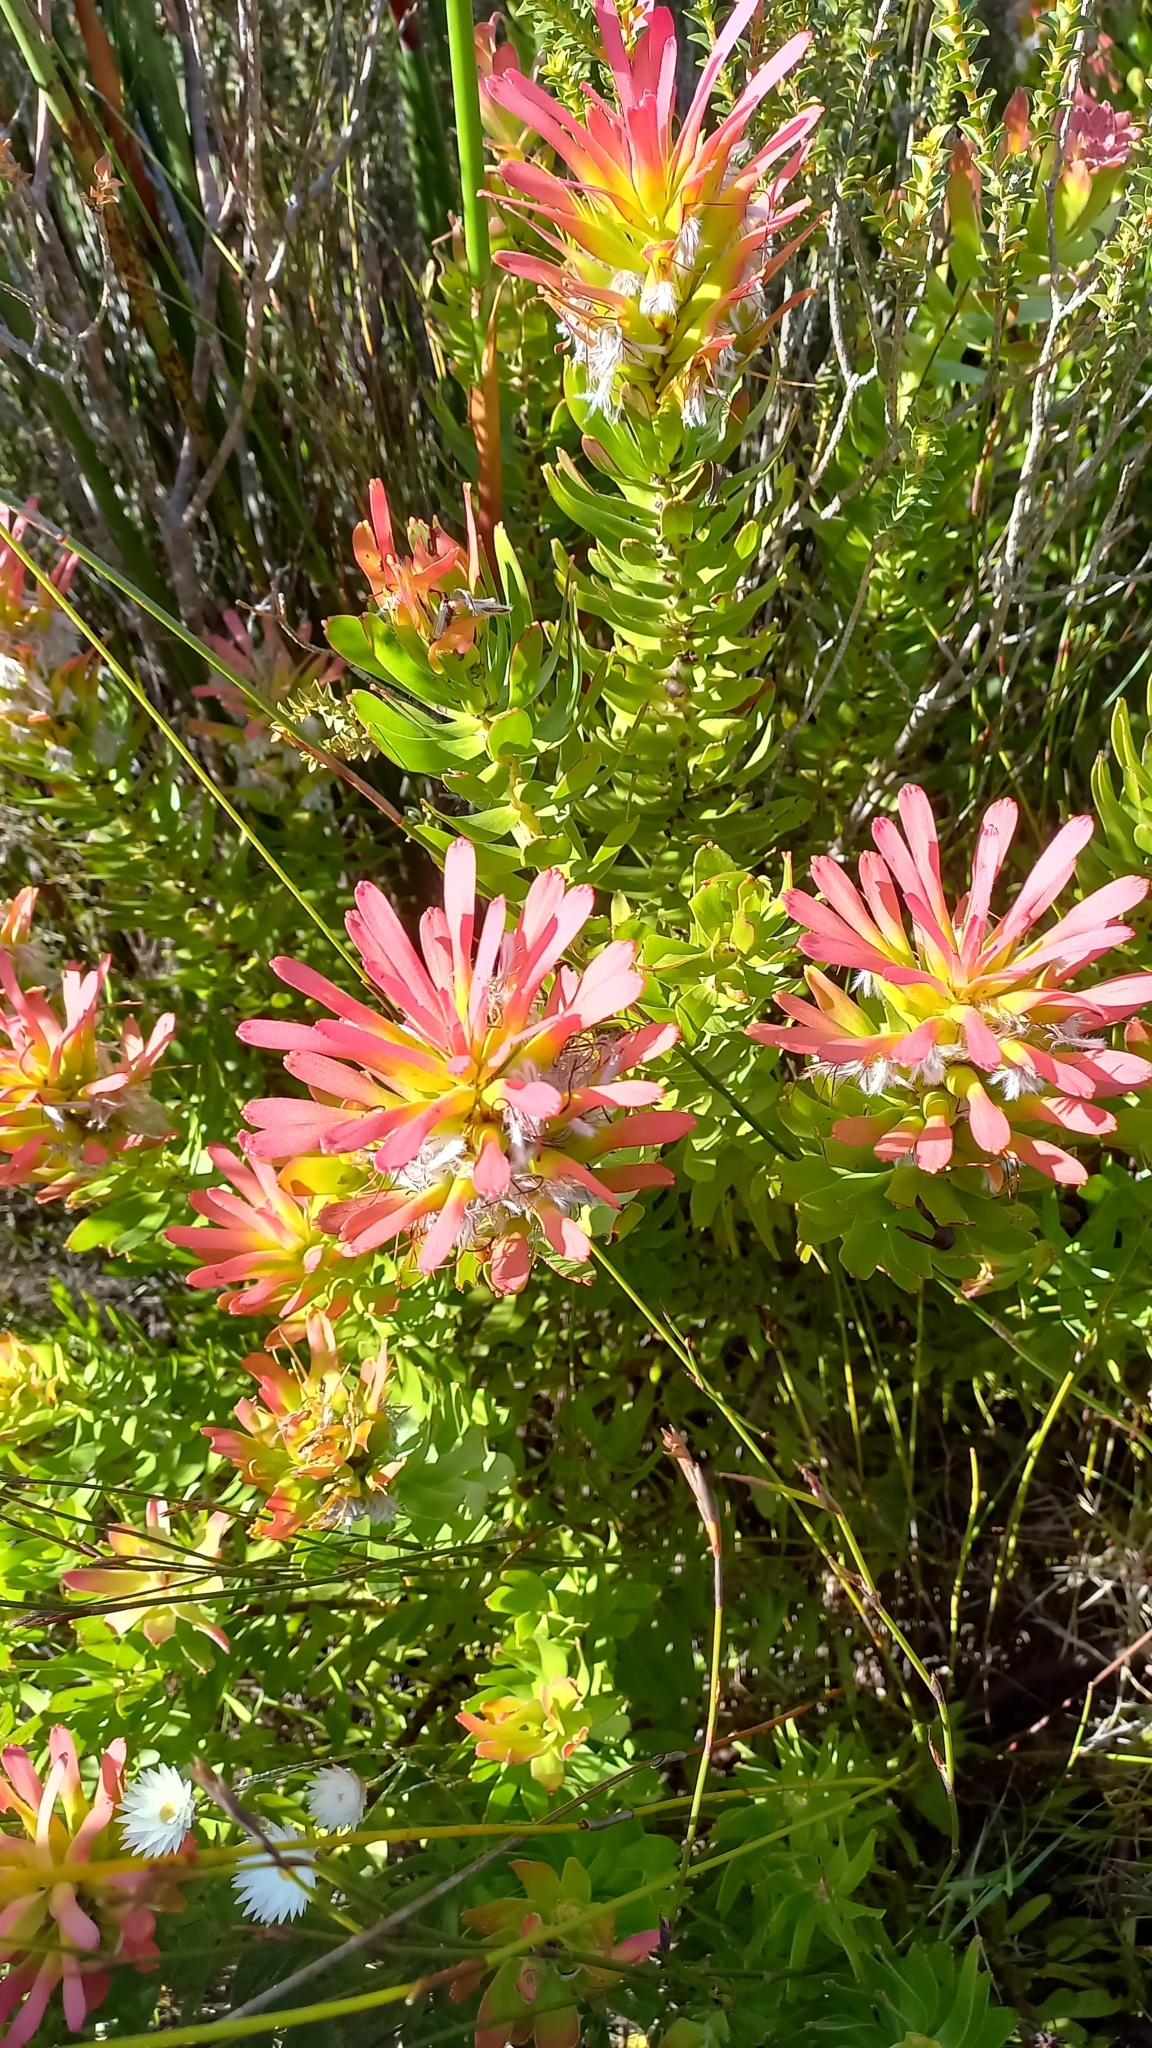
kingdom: Plantae
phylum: Tracheophyta
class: Magnoliopsida
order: Proteales
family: Proteaceae
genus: Mimetes
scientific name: Mimetes cucullatus
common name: Common pagoda
